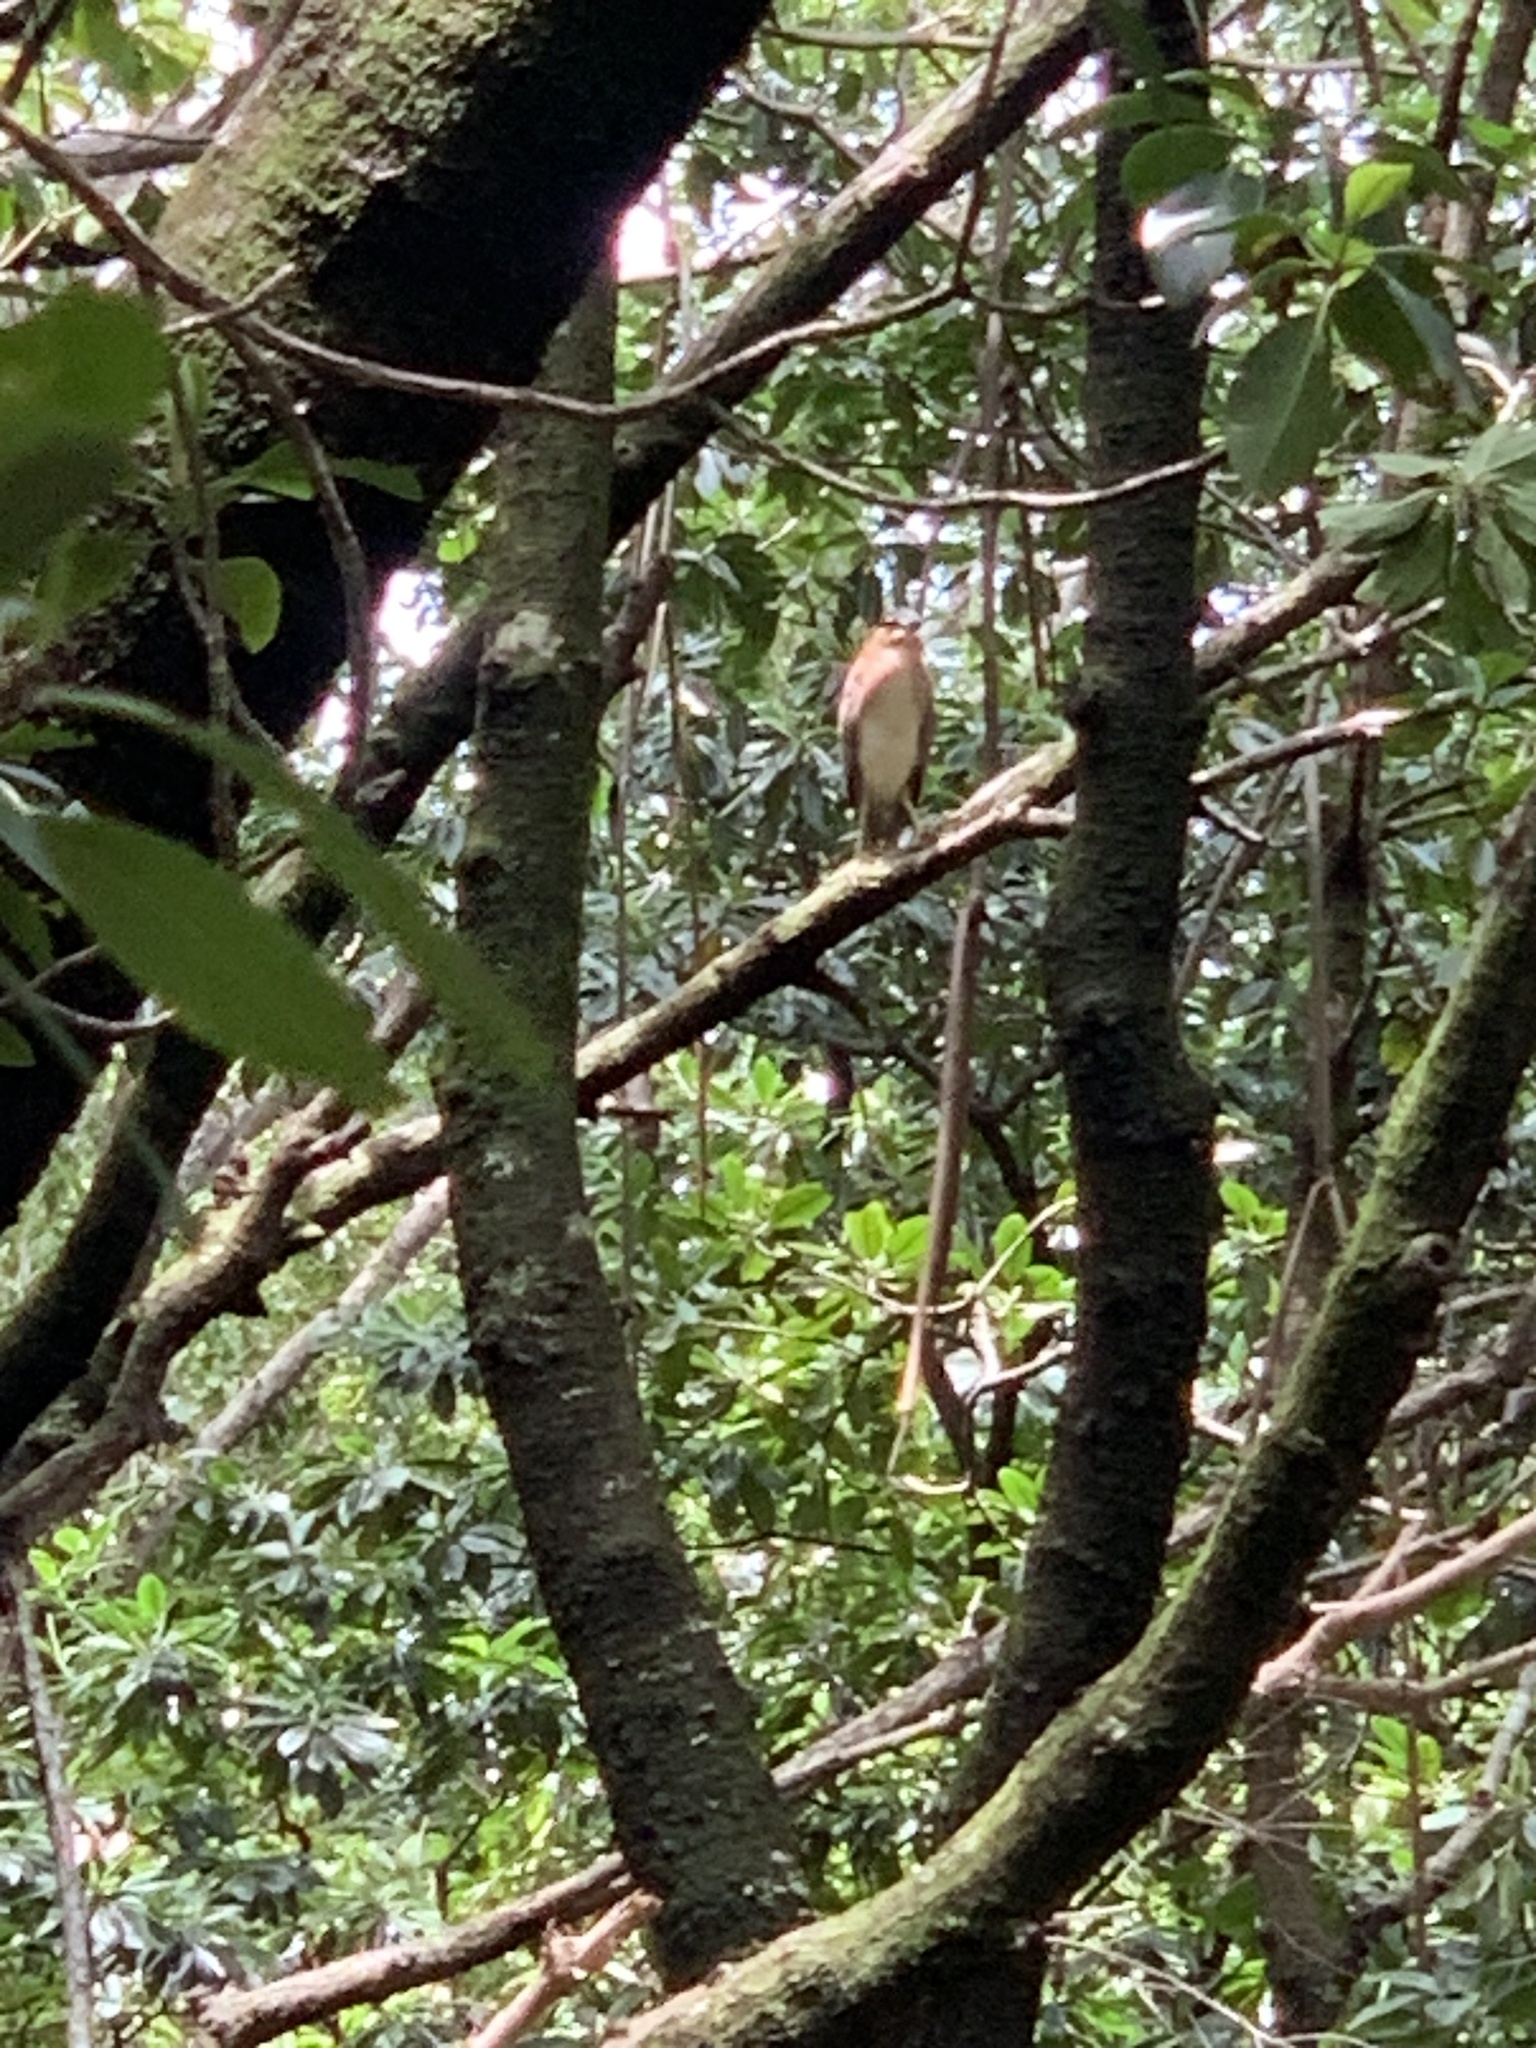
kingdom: Animalia
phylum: Chordata
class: Aves
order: Pelecaniformes
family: Ardeidae
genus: Nycticorax
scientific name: Nycticorax caledonicus
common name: Rufous night-heron
